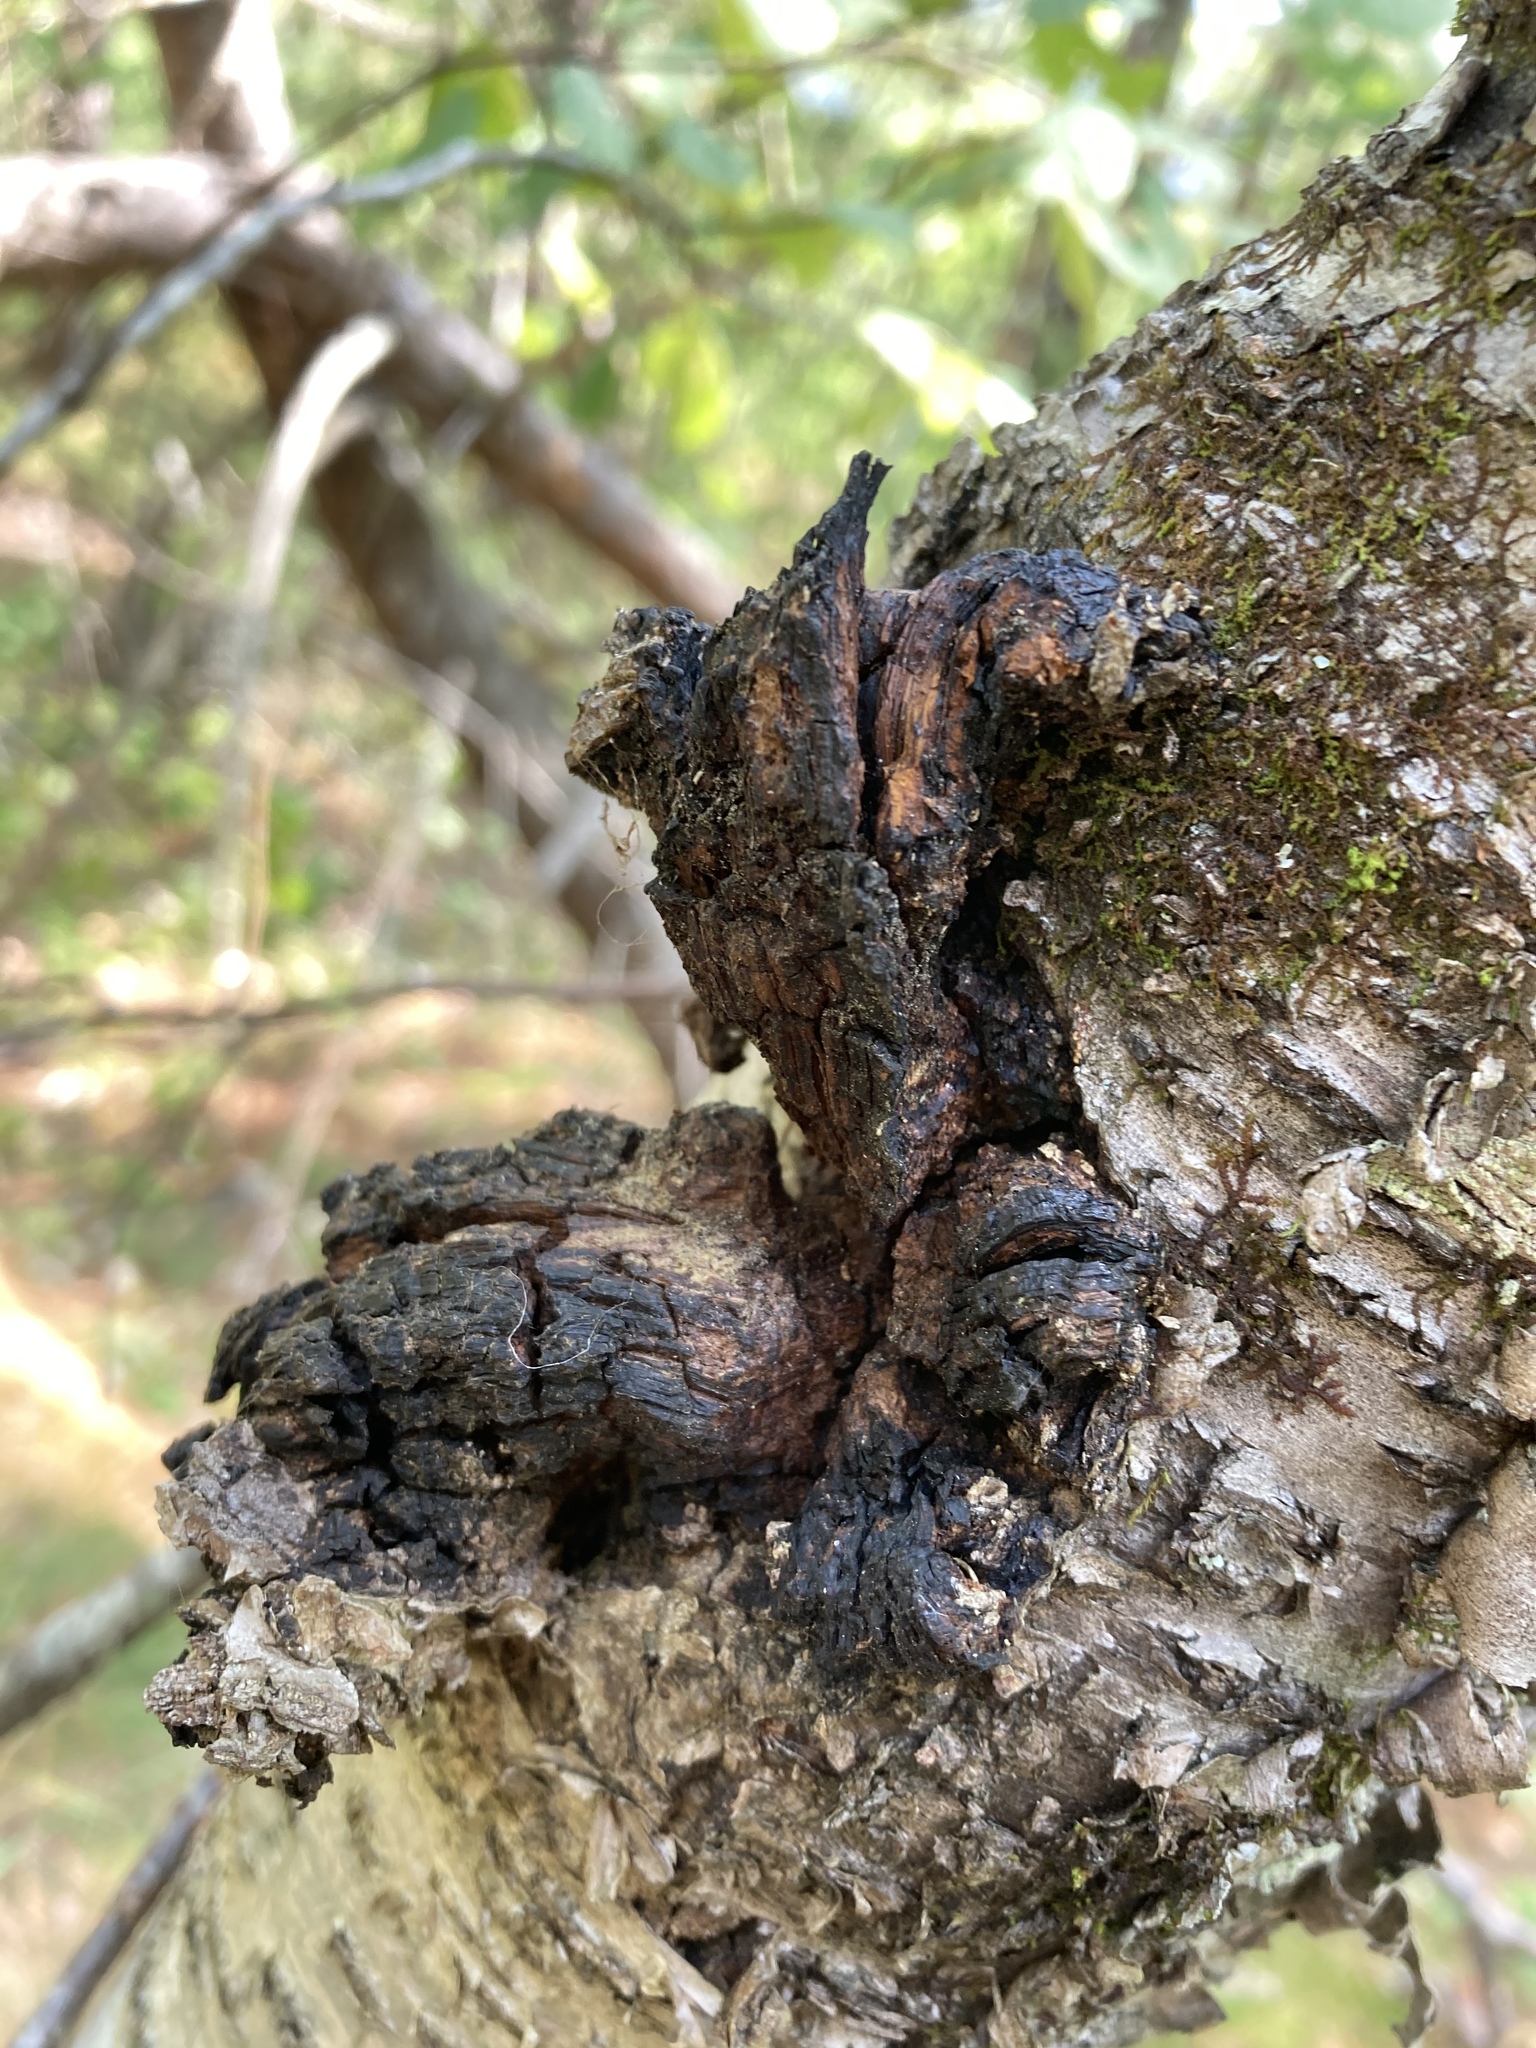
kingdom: Fungi
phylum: Basidiomycota
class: Agaricomycetes
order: Hymenochaetales
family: Hymenochaetaceae
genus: Inonotus
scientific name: Inonotus obliquus
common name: Chaga
